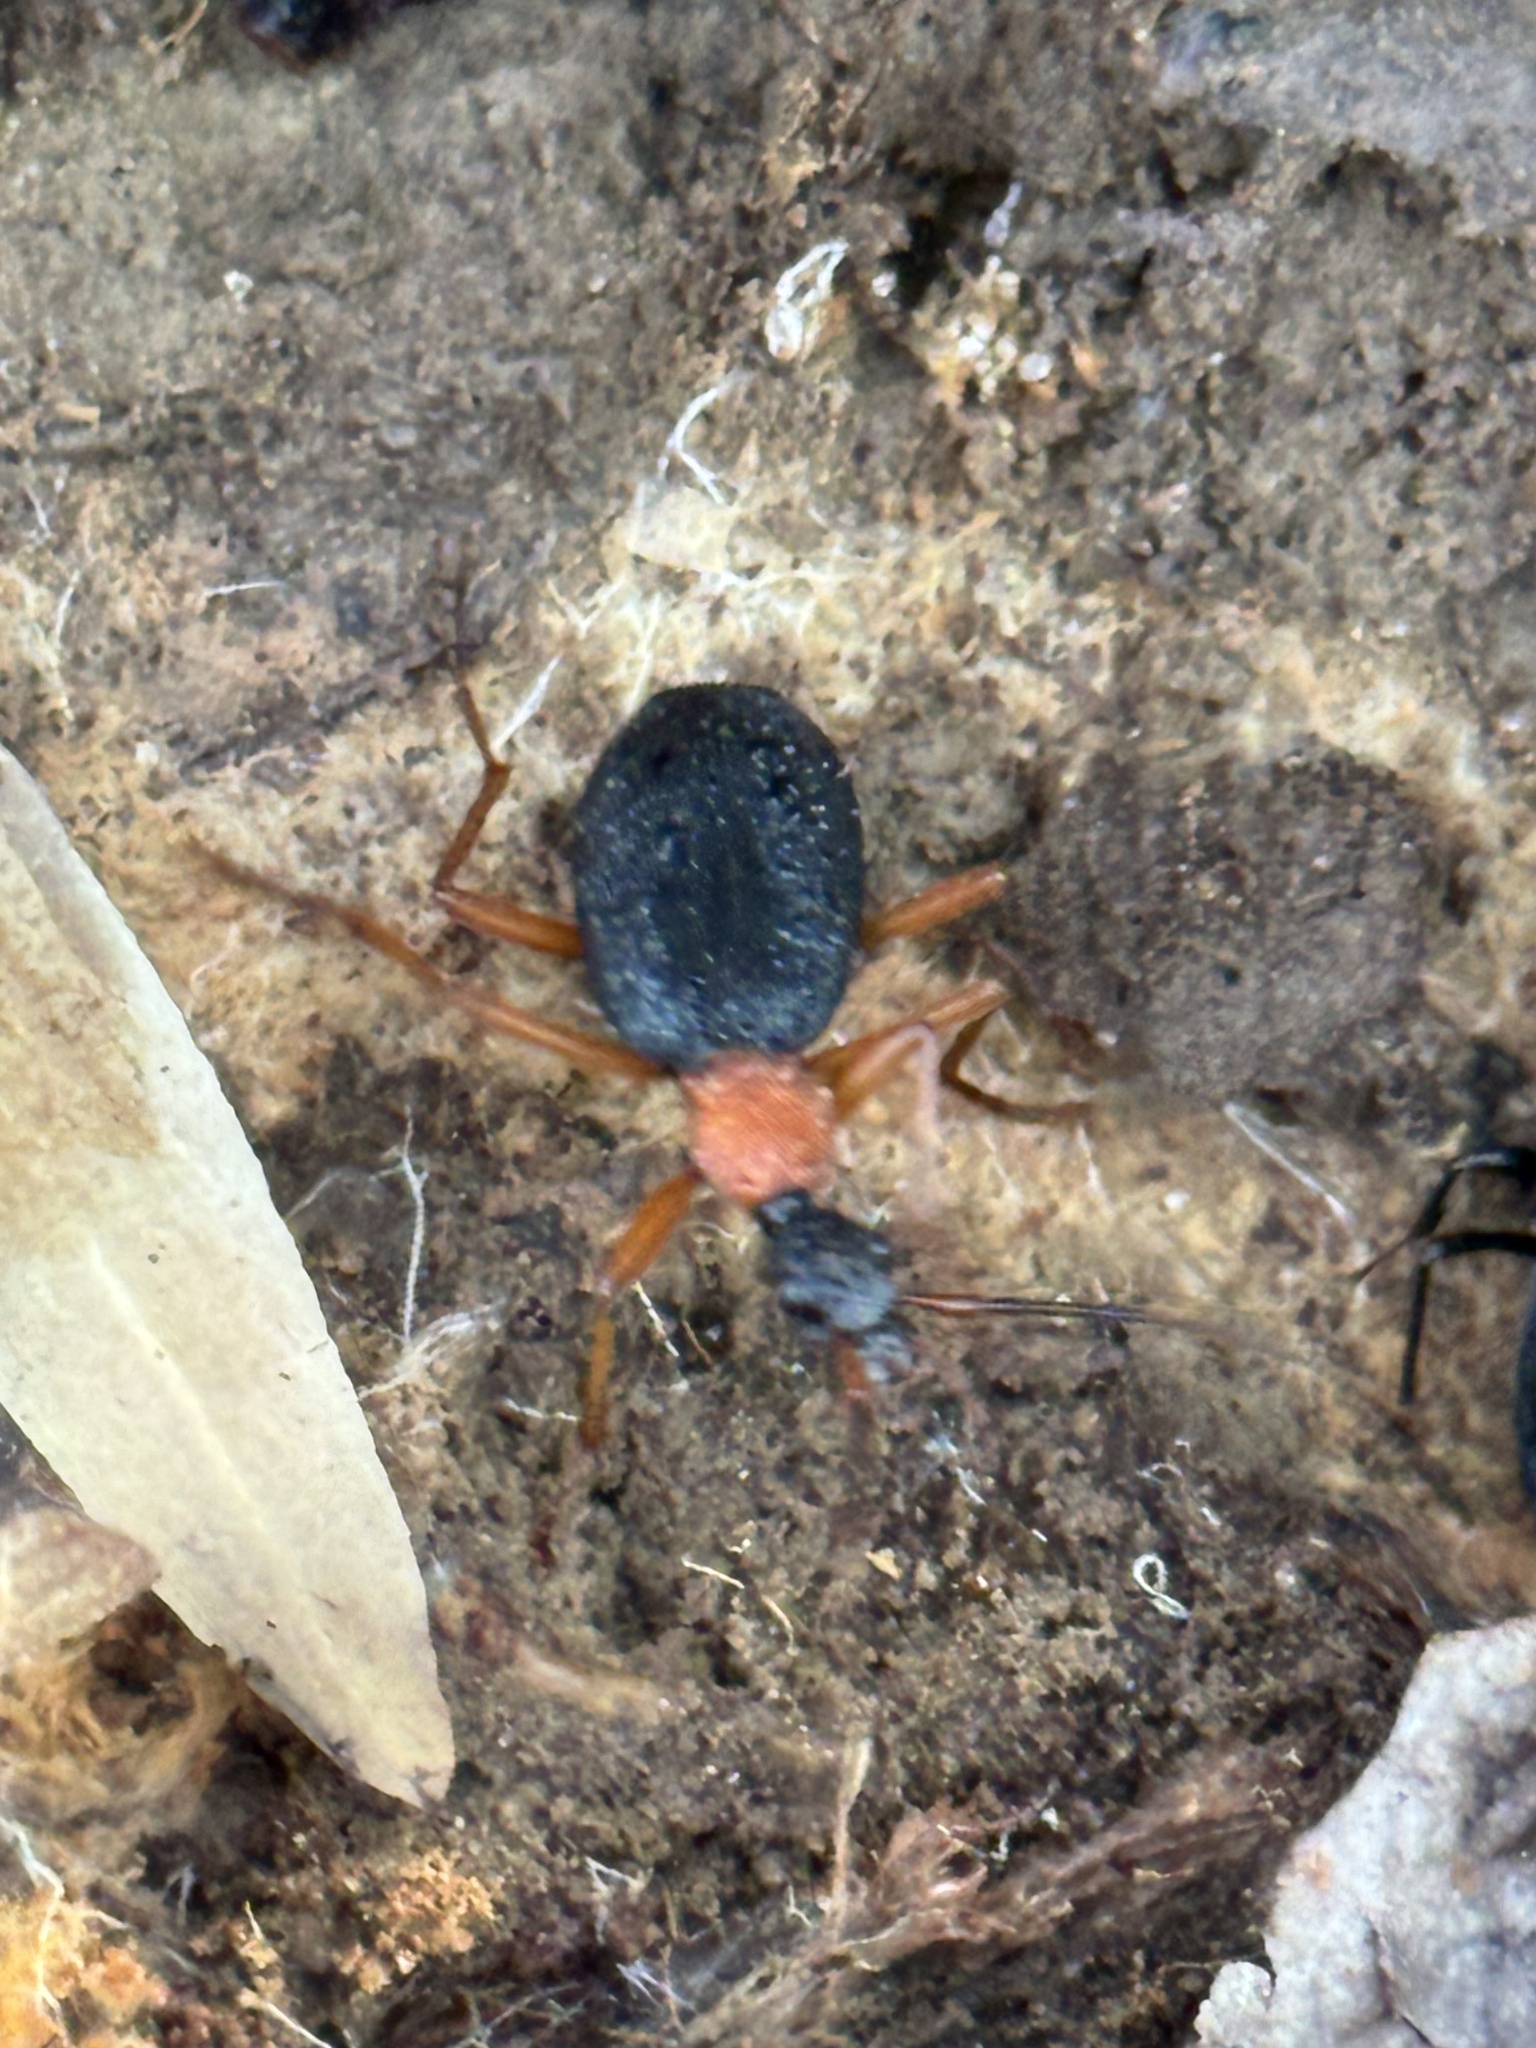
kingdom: Animalia
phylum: Arthropoda
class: Insecta
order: Coleoptera
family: Carabidae
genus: Galerita
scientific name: Galerita bicolor
